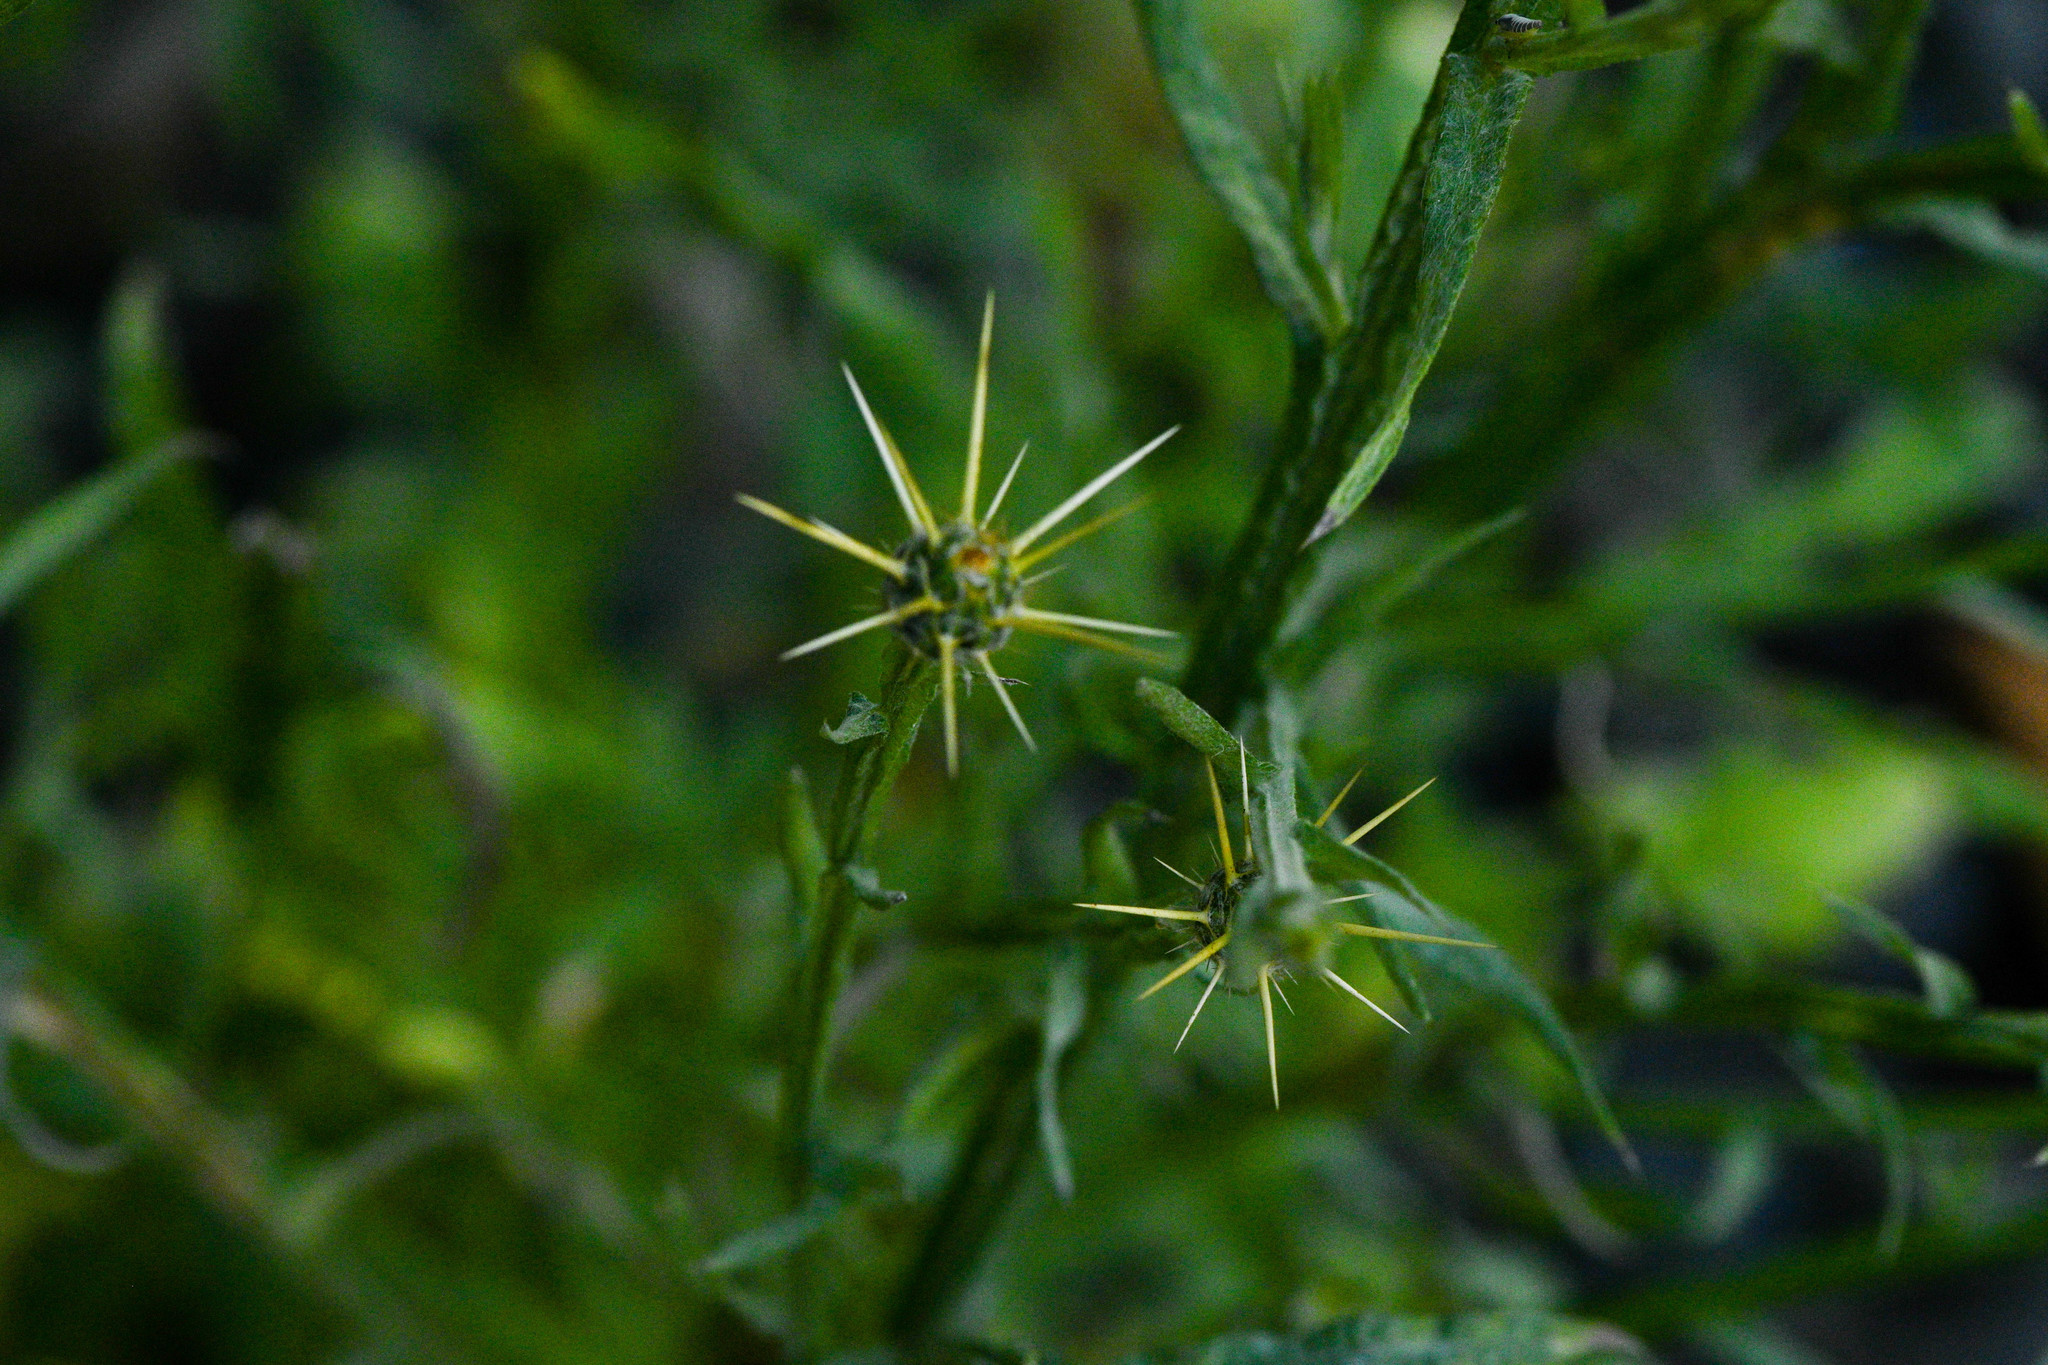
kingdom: Plantae
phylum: Tracheophyta
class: Magnoliopsida
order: Asterales
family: Asteraceae
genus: Centaurea
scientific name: Centaurea solstitialis
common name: Yellow star-thistle
